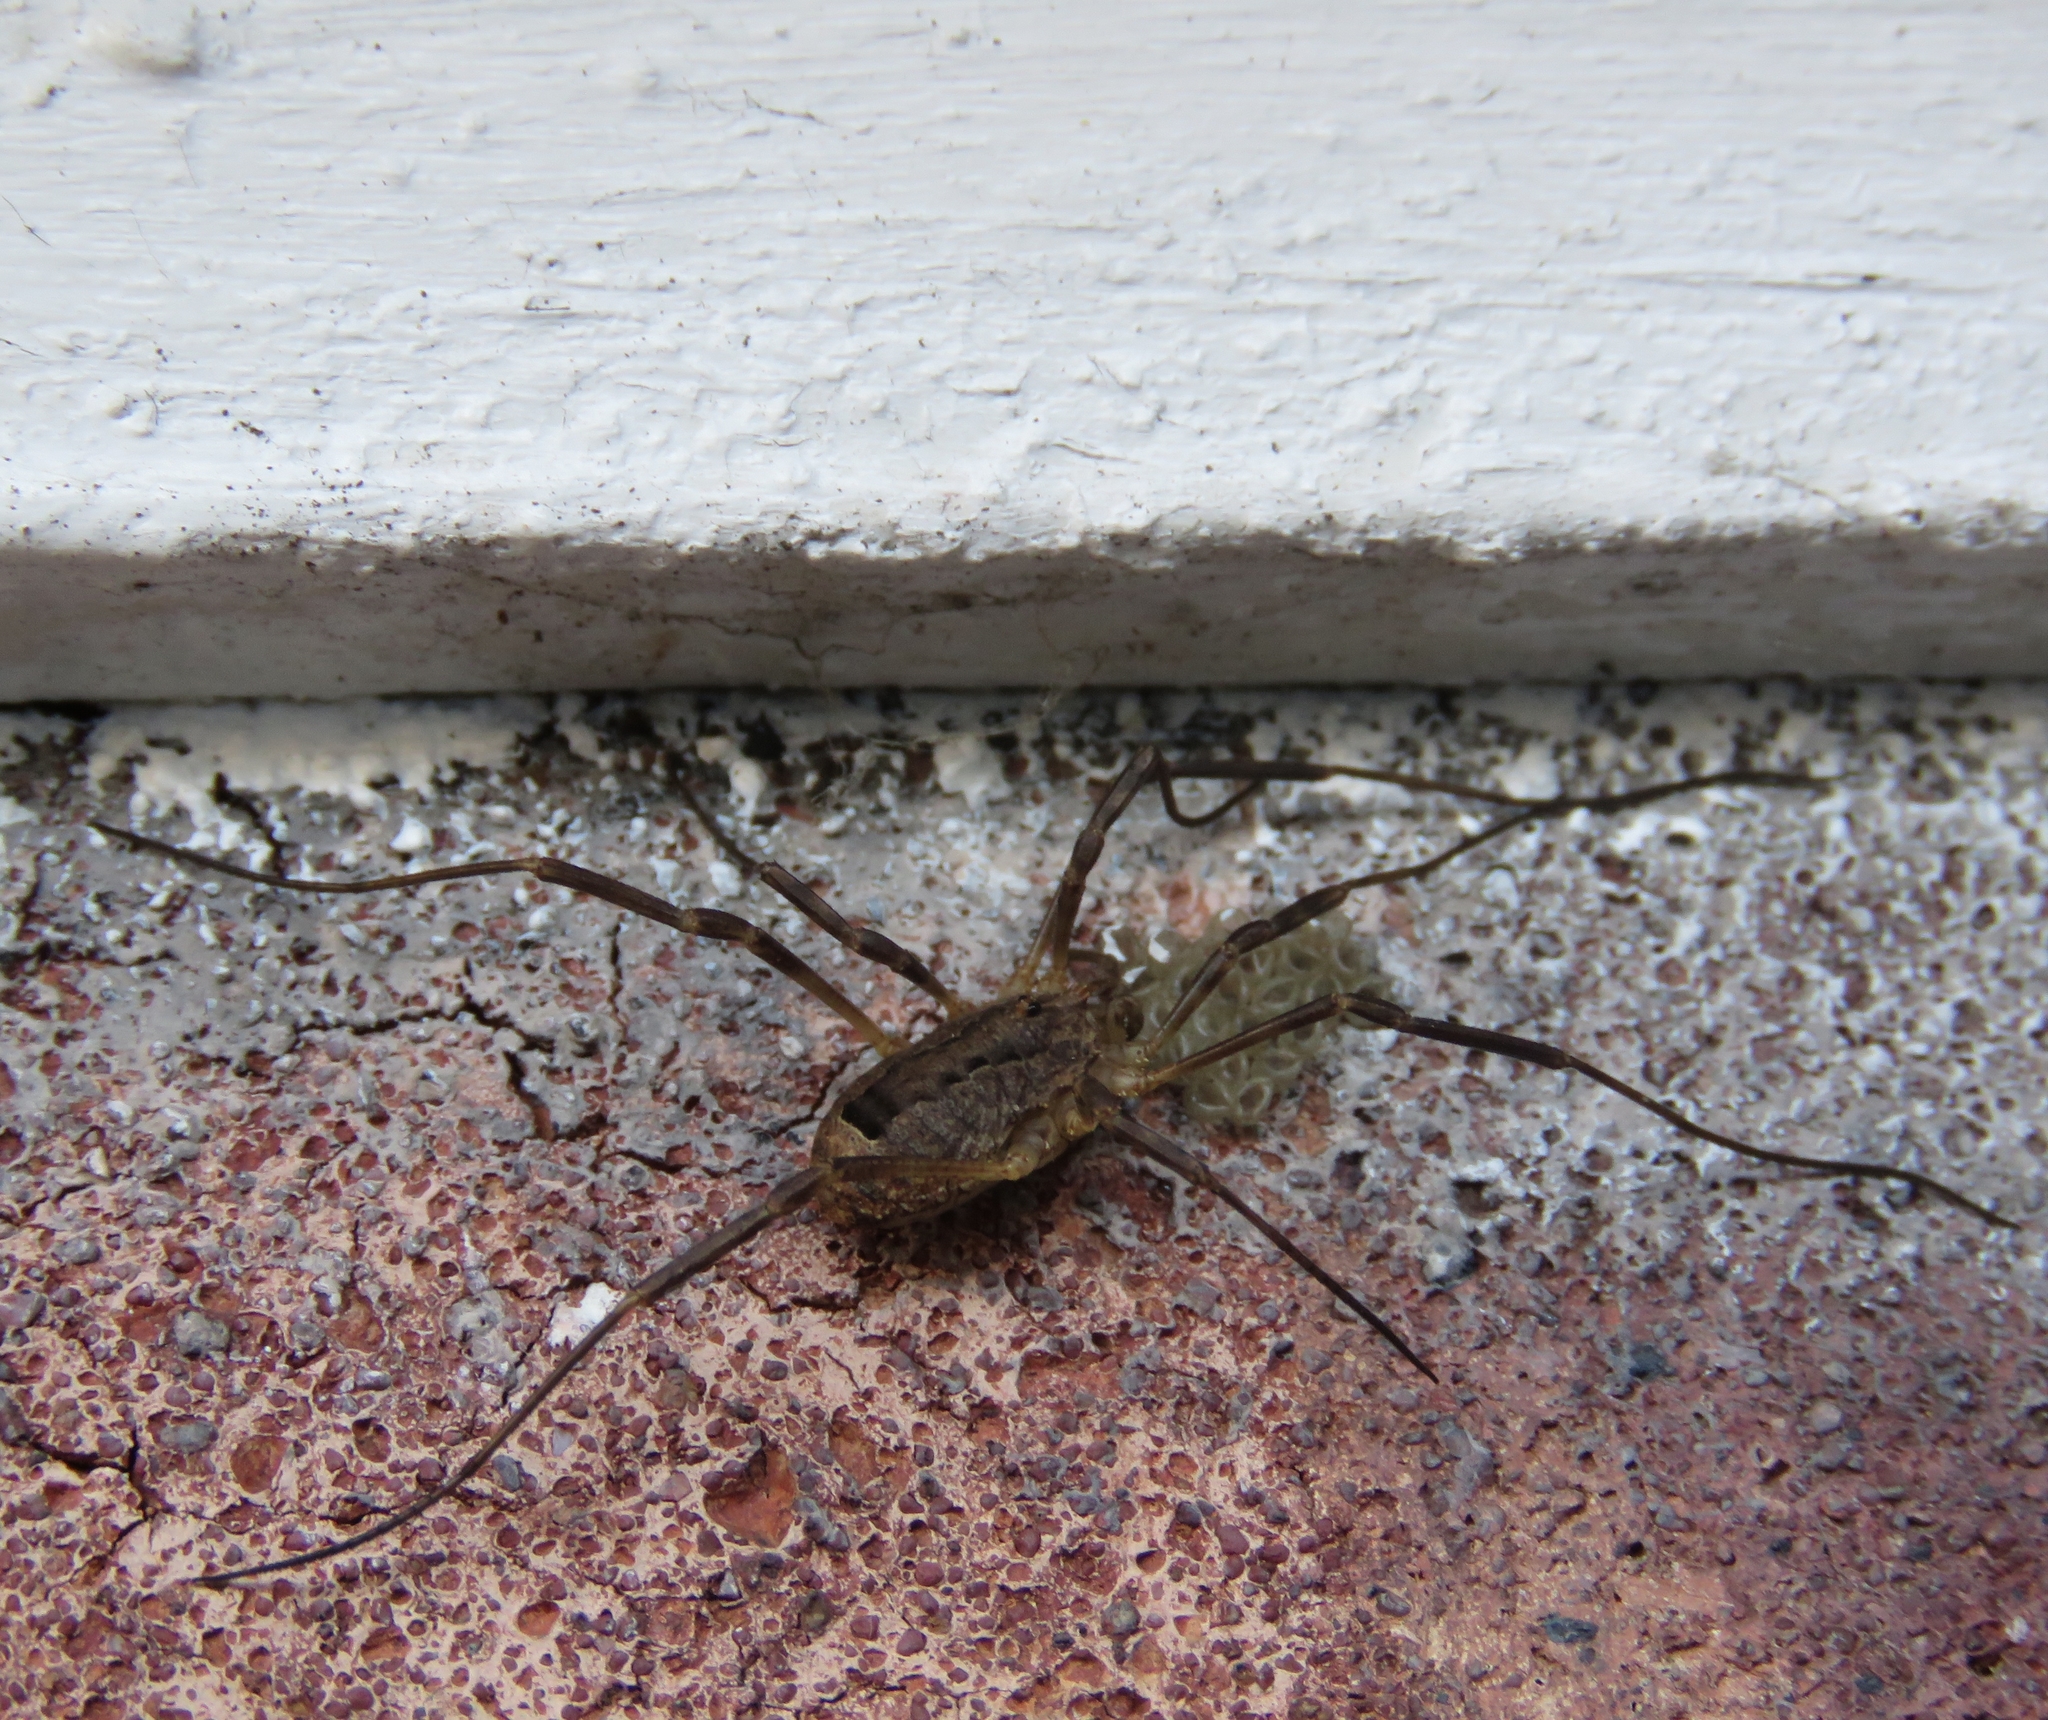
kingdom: Animalia
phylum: Arthropoda
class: Arachnida
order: Opiliones
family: Phalangiidae
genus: Odiellus
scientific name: Odiellus spinosus
